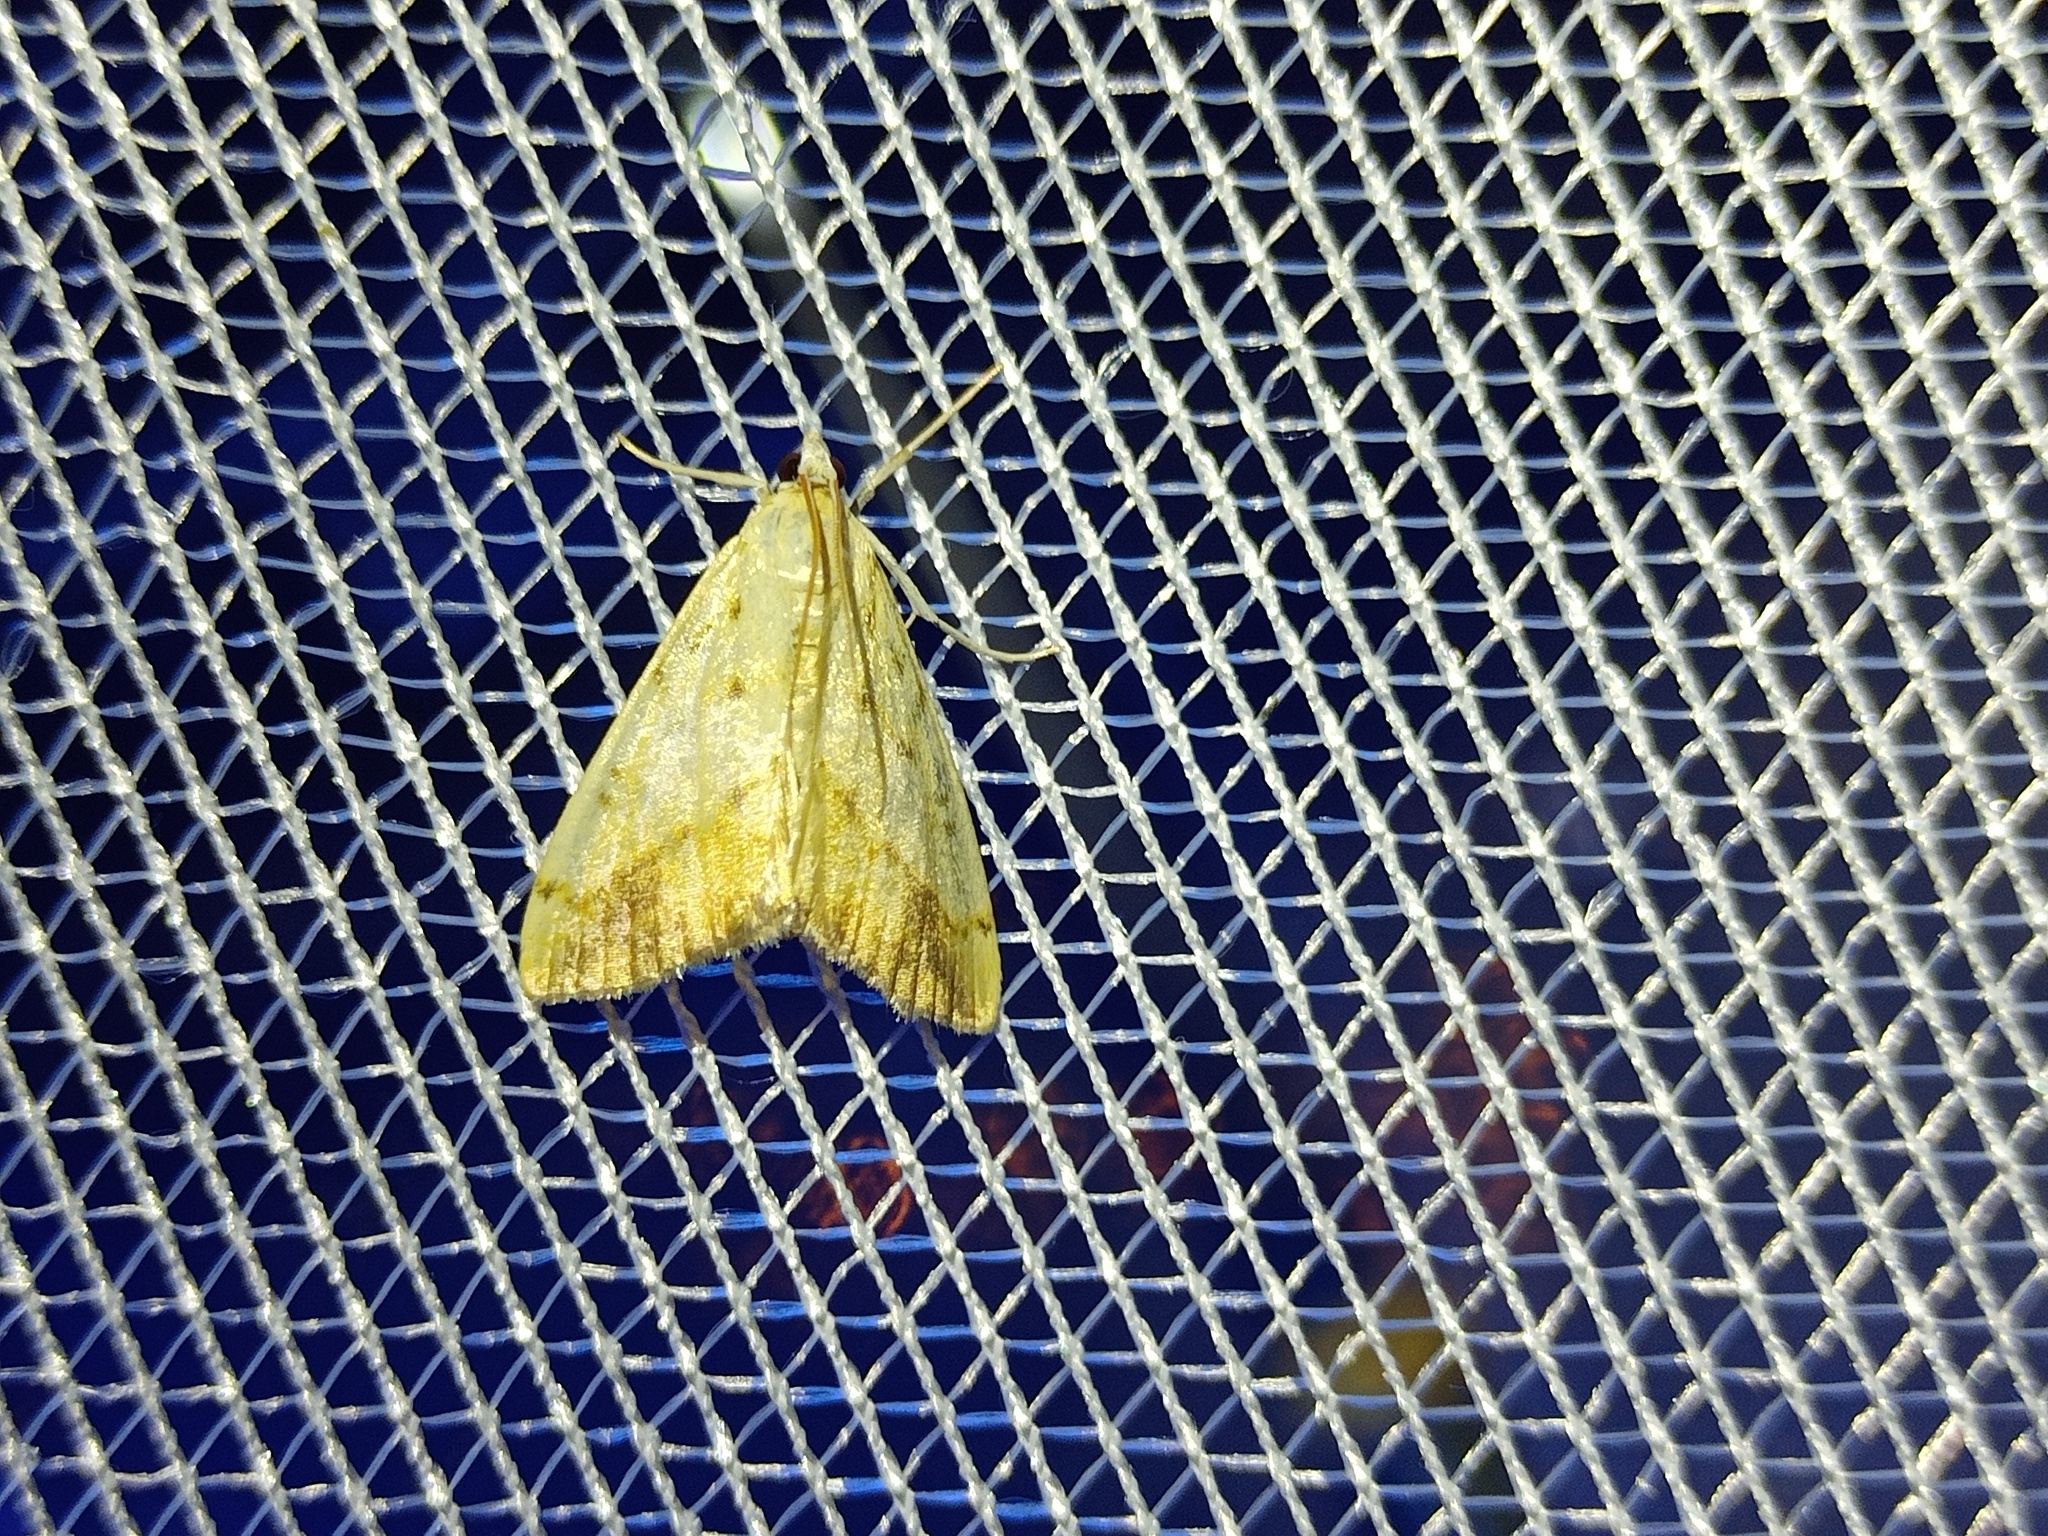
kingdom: Animalia
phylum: Arthropoda
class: Insecta
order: Lepidoptera
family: Crambidae
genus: Evergestis
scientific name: Evergestis extimalis
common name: Marbled yellow pearl
